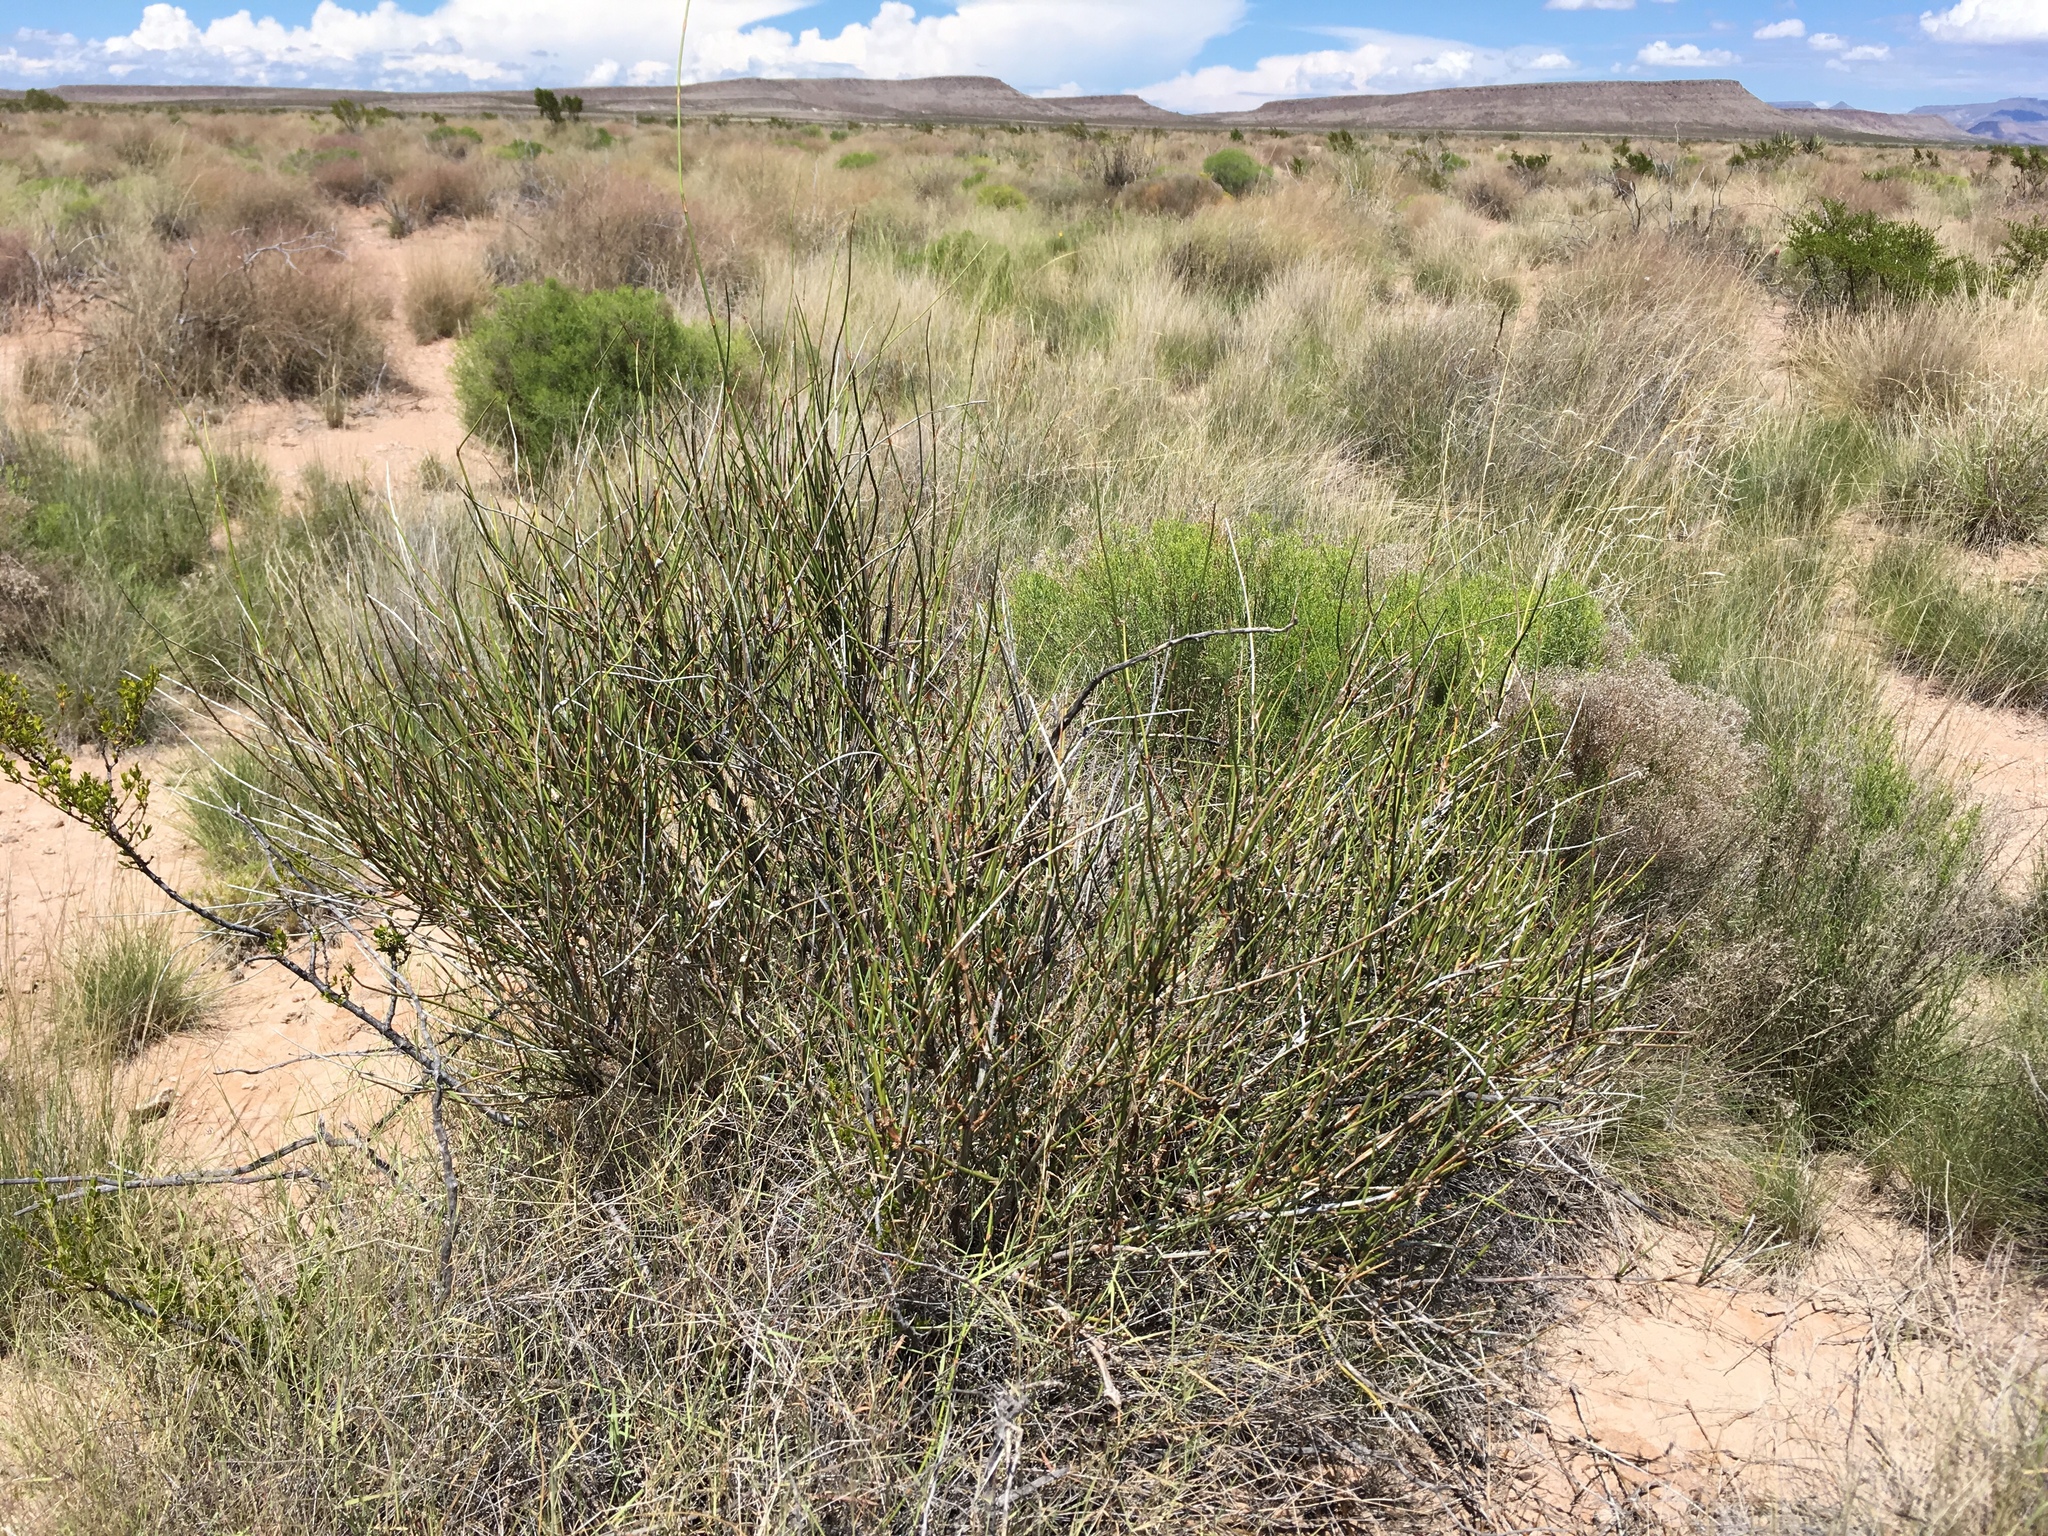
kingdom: Plantae
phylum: Tracheophyta
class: Gnetopsida
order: Ephedrales
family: Ephedraceae
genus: Ephedra
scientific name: Ephedra trifurca
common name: Mexican-tea
